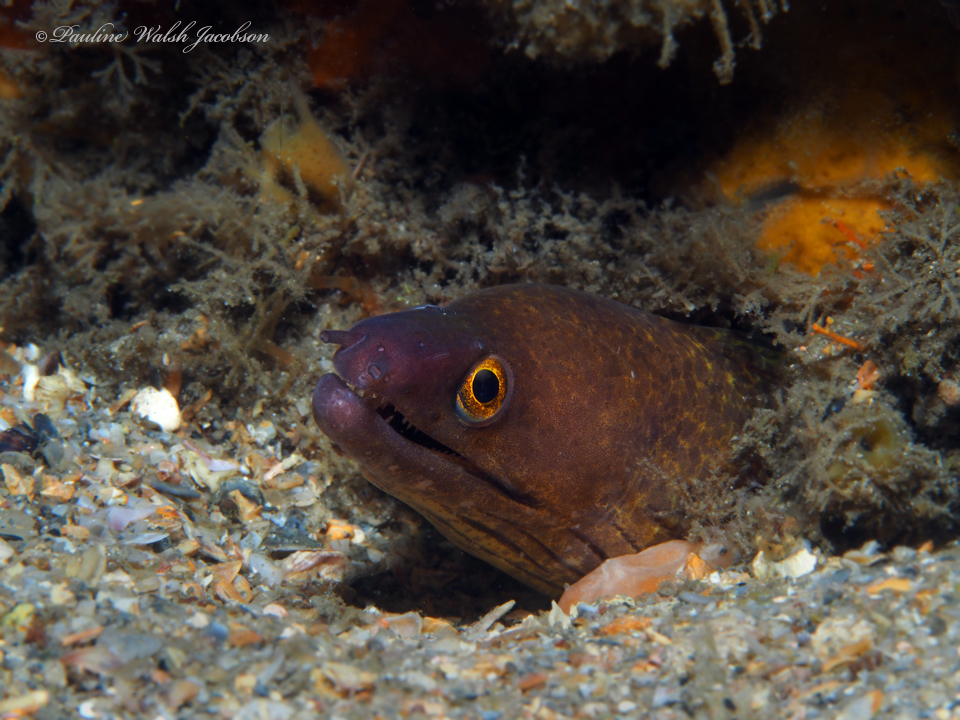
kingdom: Animalia
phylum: Chordata
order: Anguilliformes
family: Muraenidae
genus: Gymnothorax
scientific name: Gymnothorax vicinus
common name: Purplemouth moray
